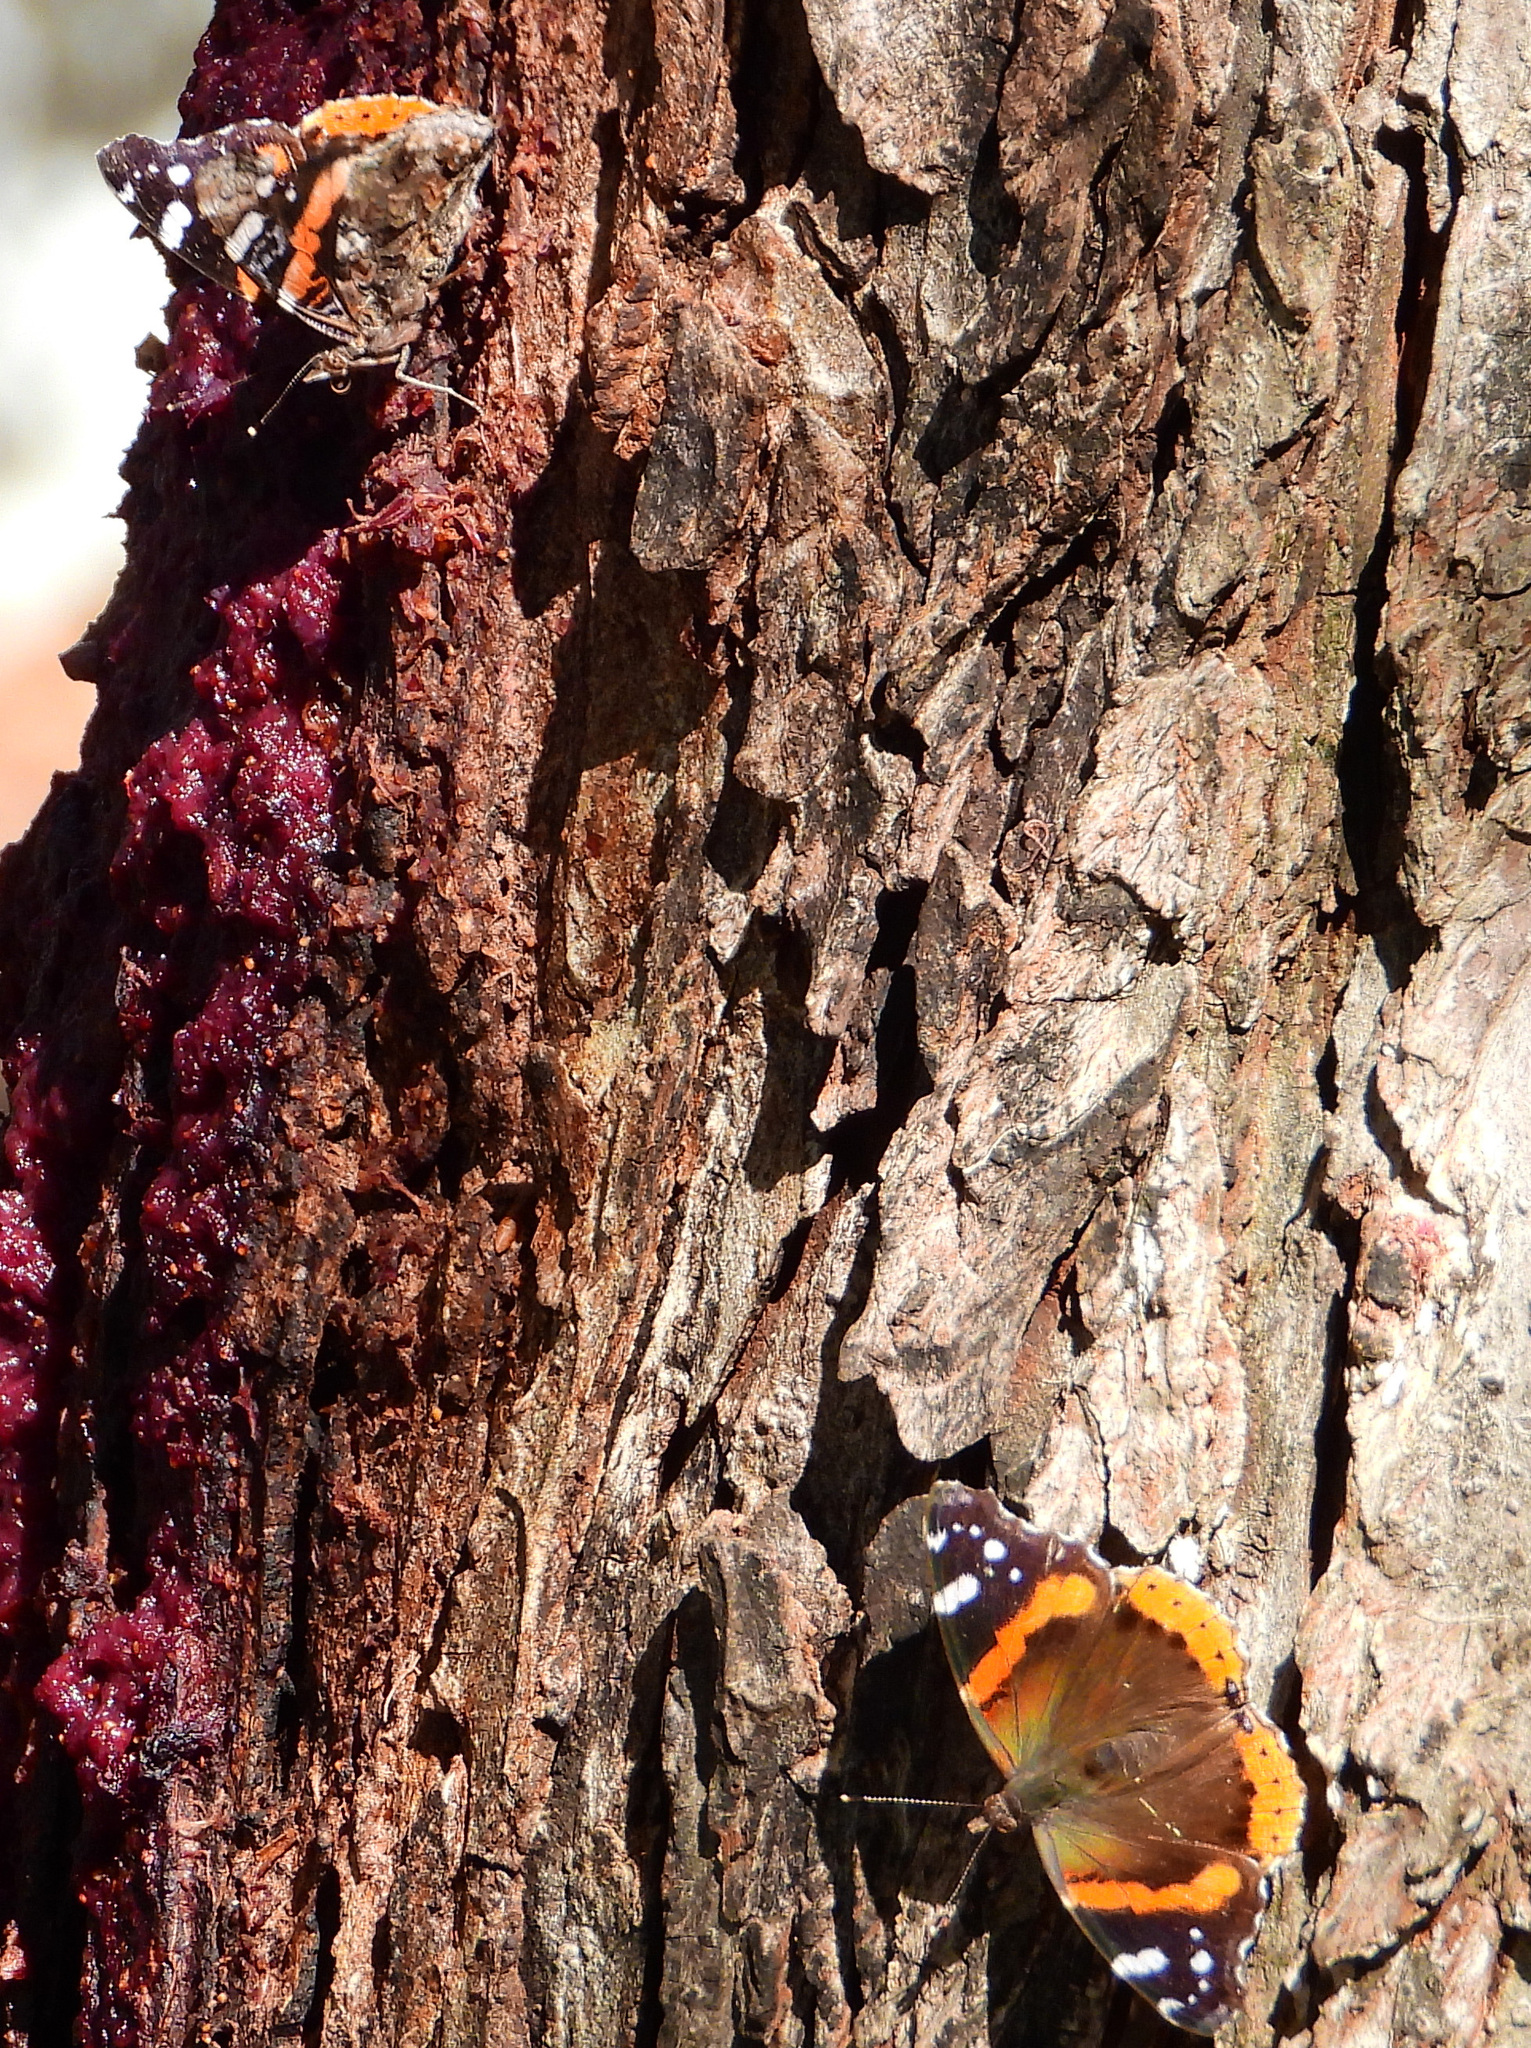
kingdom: Animalia
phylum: Arthropoda
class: Insecta
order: Lepidoptera
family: Nymphalidae
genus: Vanessa
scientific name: Vanessa atalanta
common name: Red admiral
